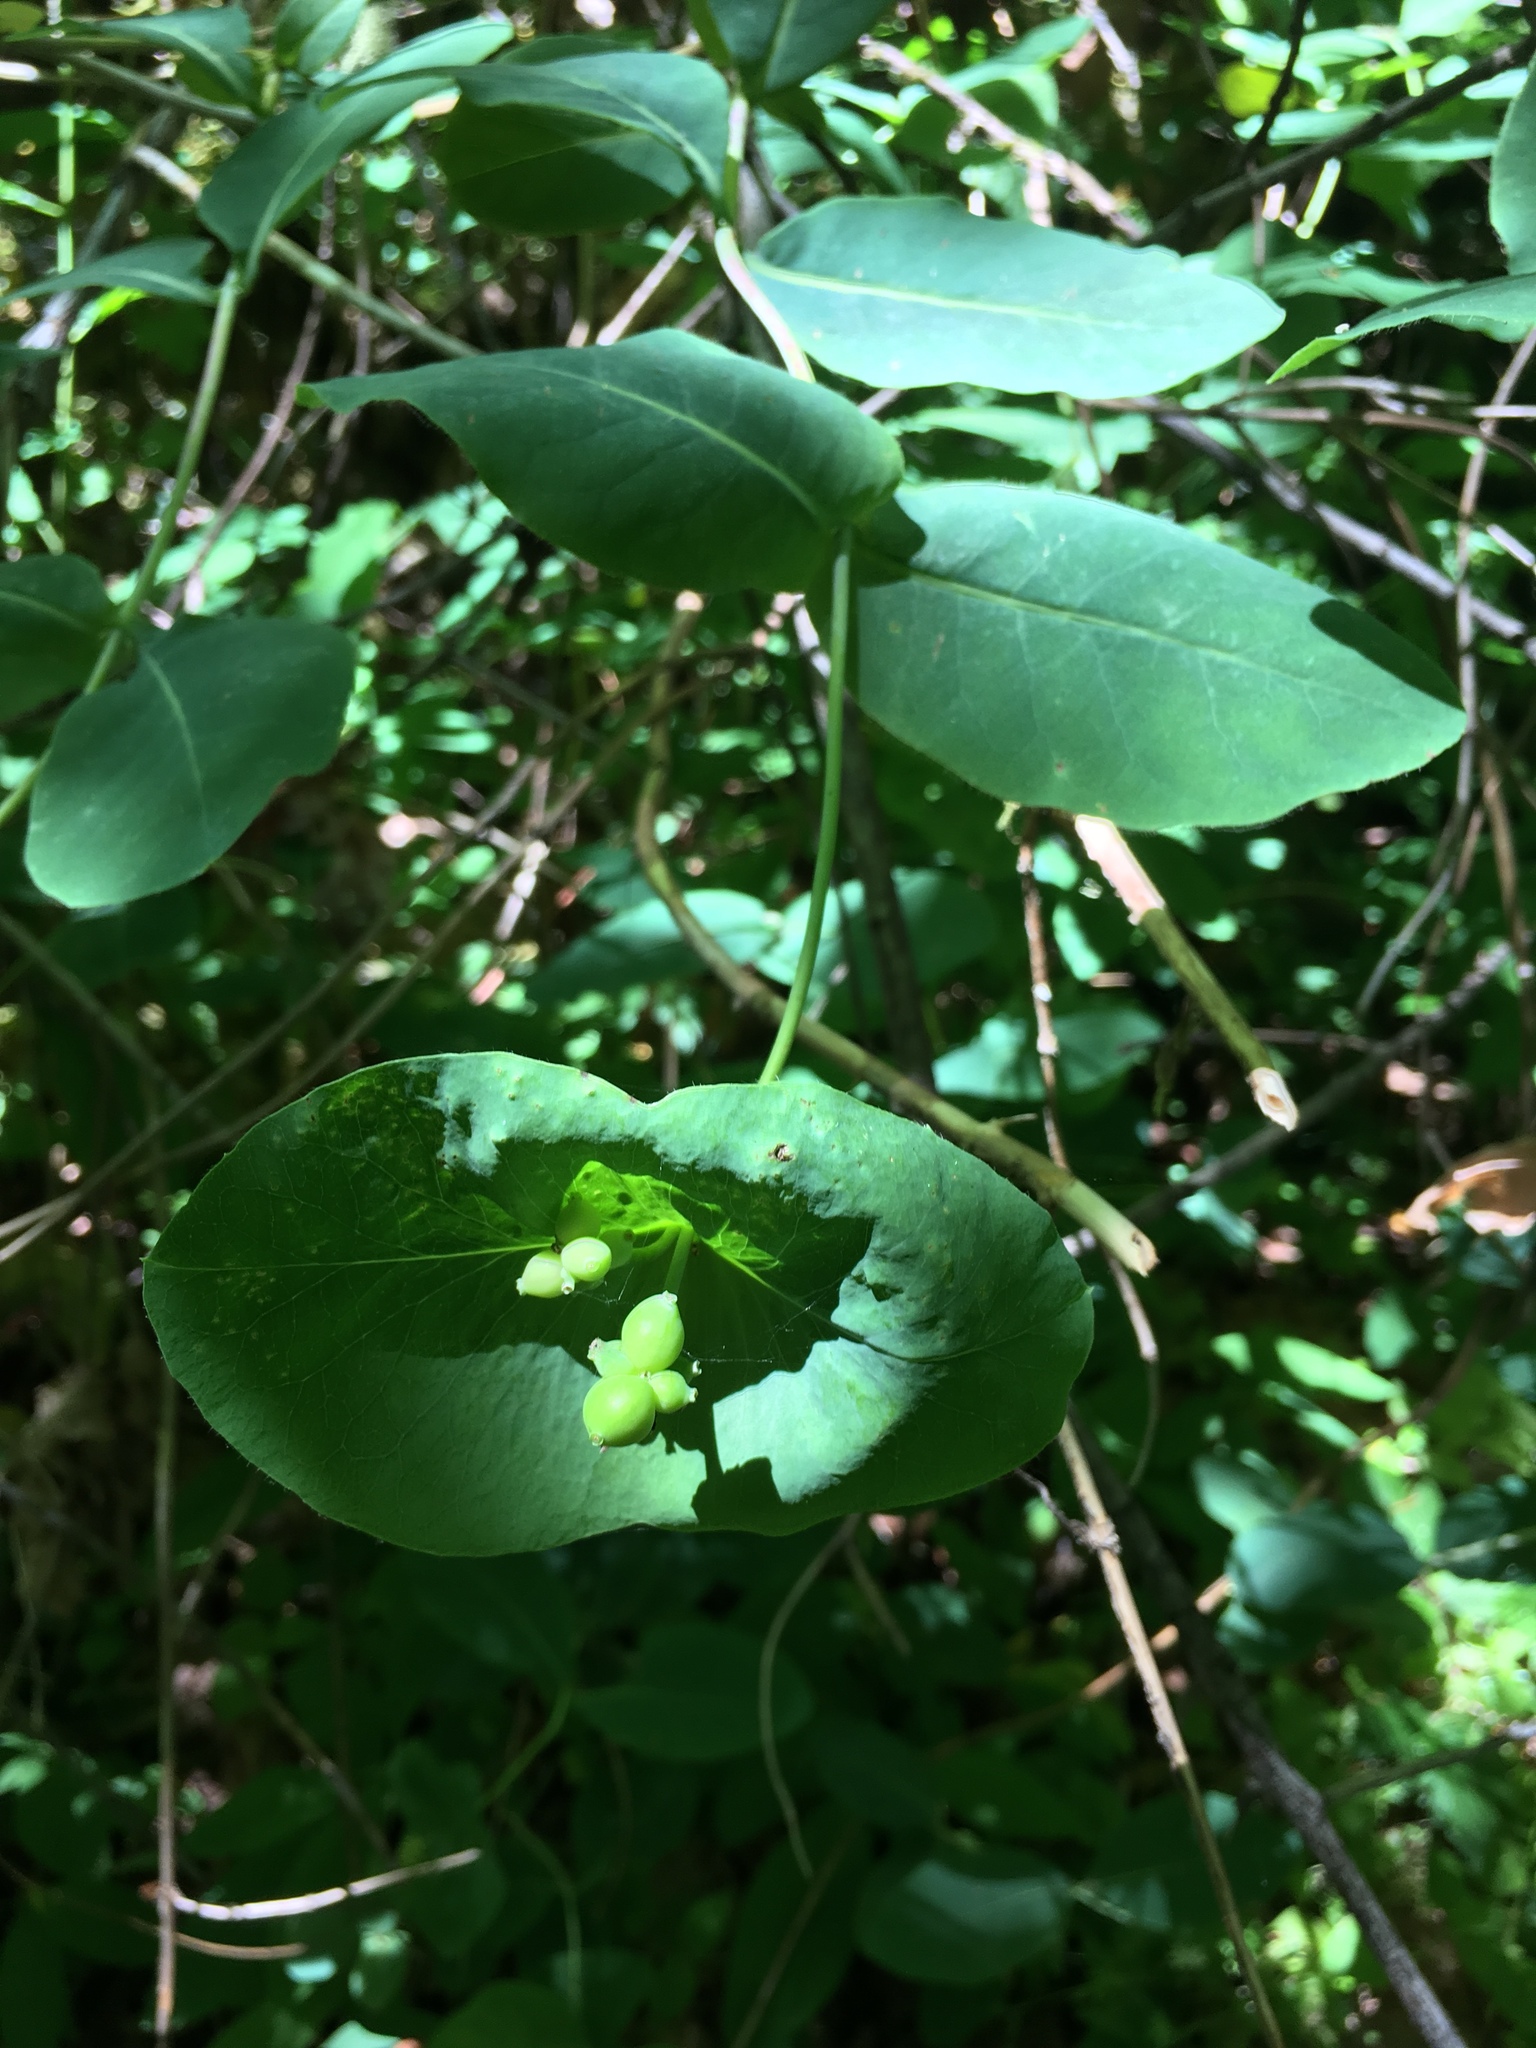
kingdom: Plantae
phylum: Tracheophyta
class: Magnoliopsida
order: Dipsacales
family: Caprifoliaceae
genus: Lonicera
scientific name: Lonicera ciliosa
